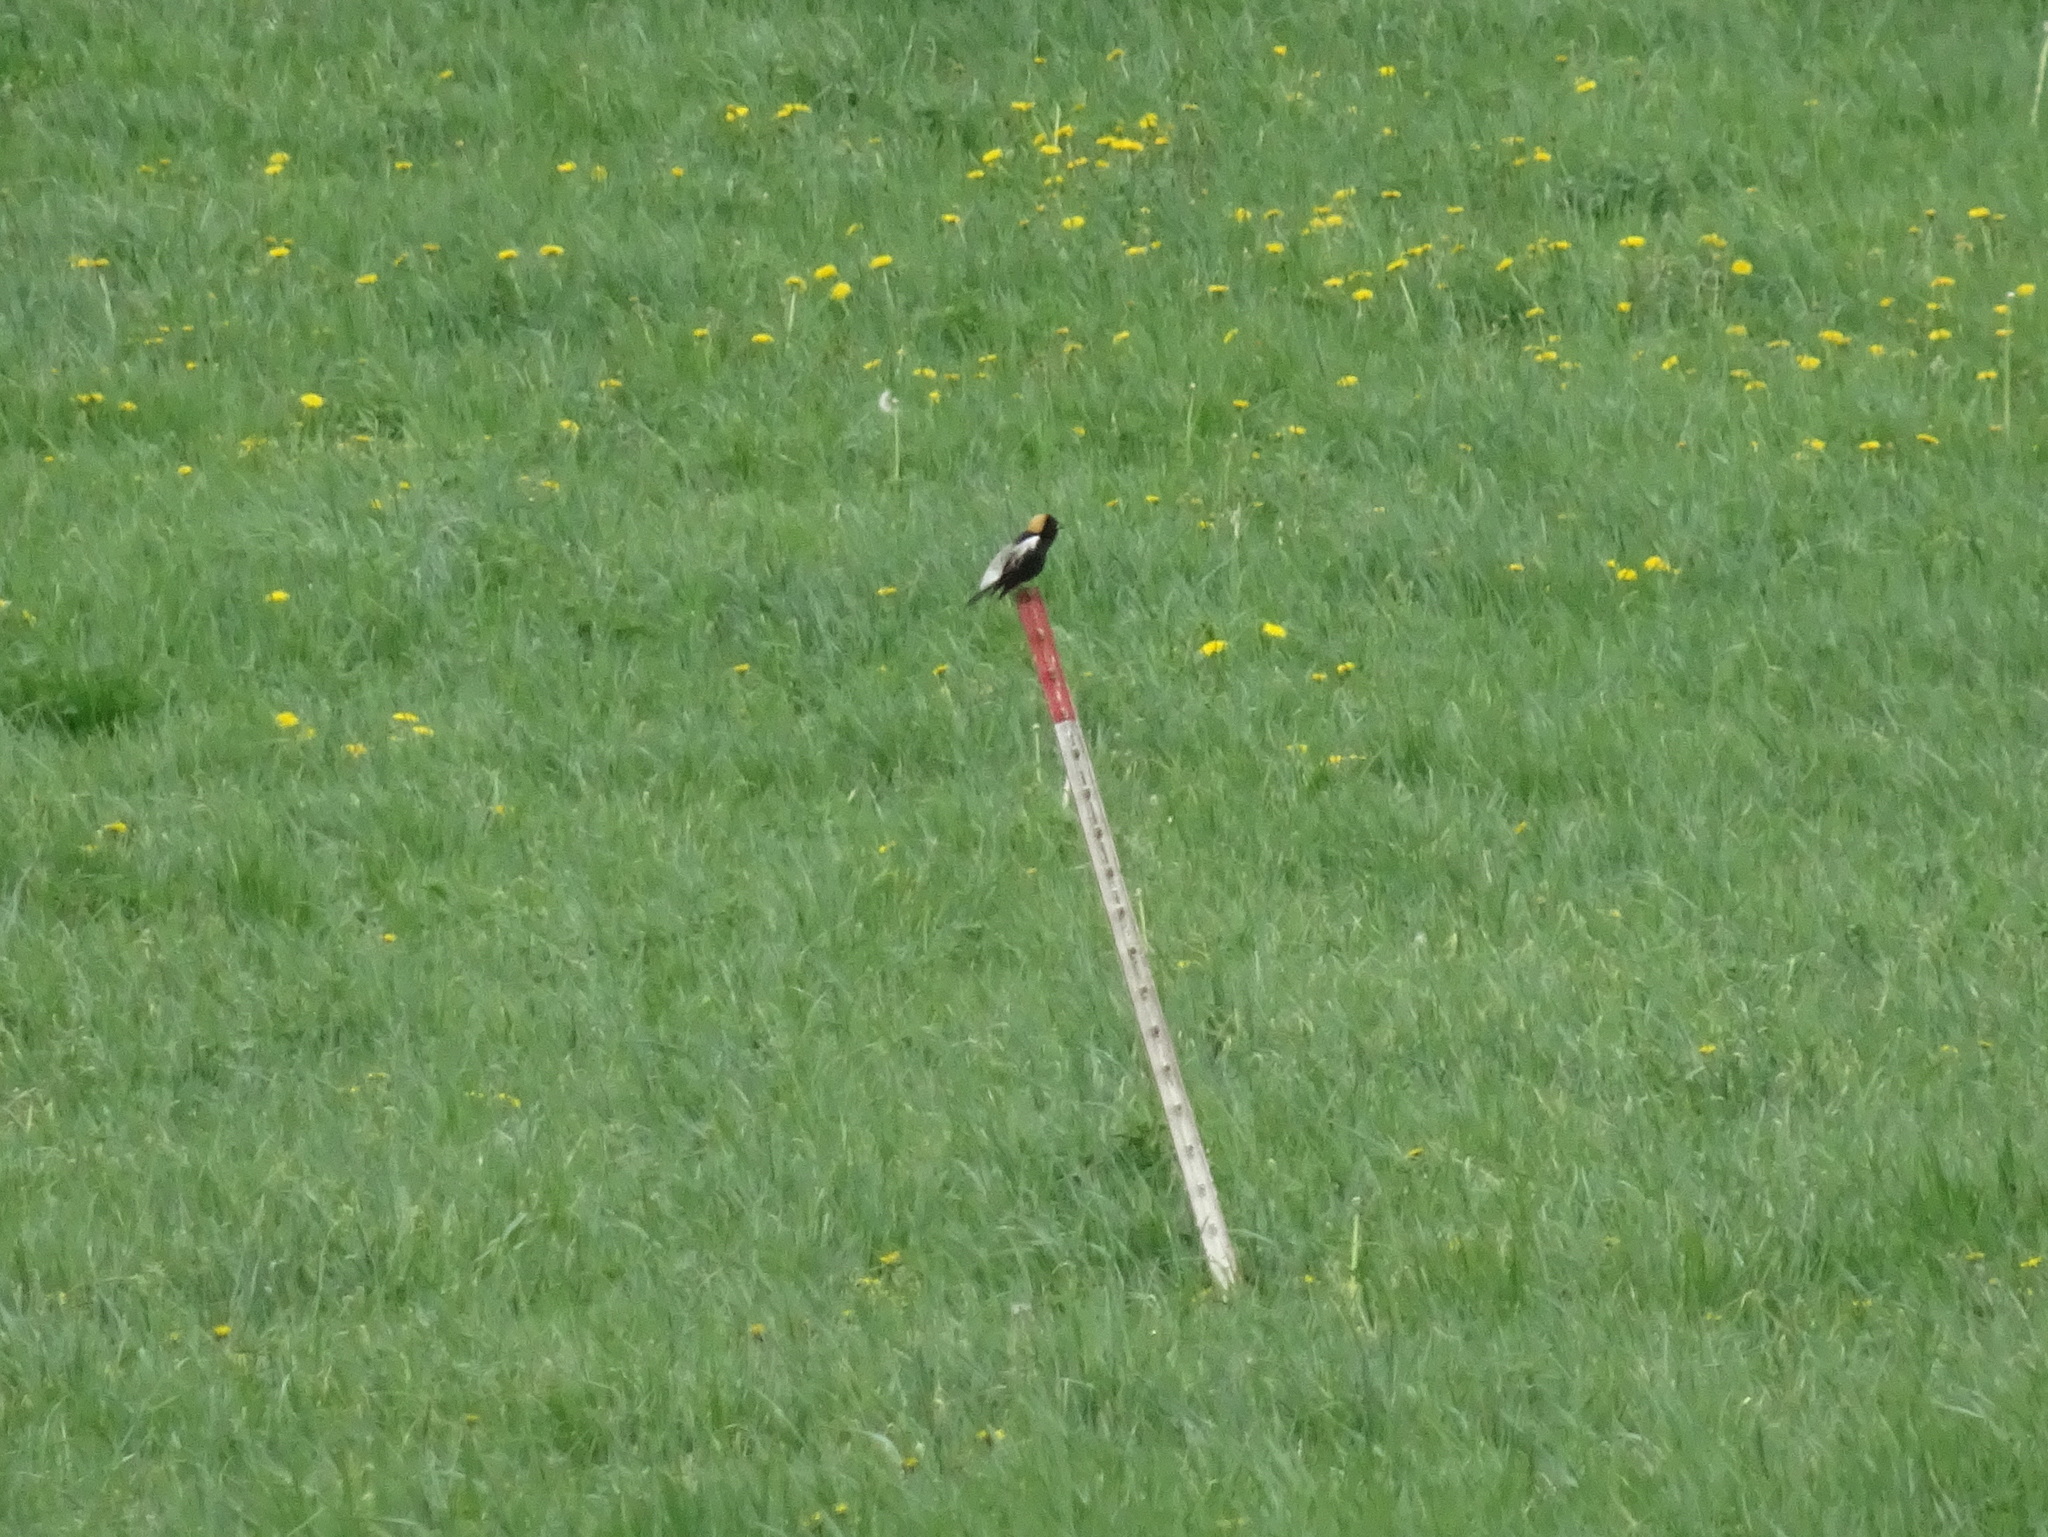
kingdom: Animalia
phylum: Chordata
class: Aves
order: Passeriformes
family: Icteridae
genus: Dolichonyx
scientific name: Dolichonyx oryzivorus
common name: Bobolink
